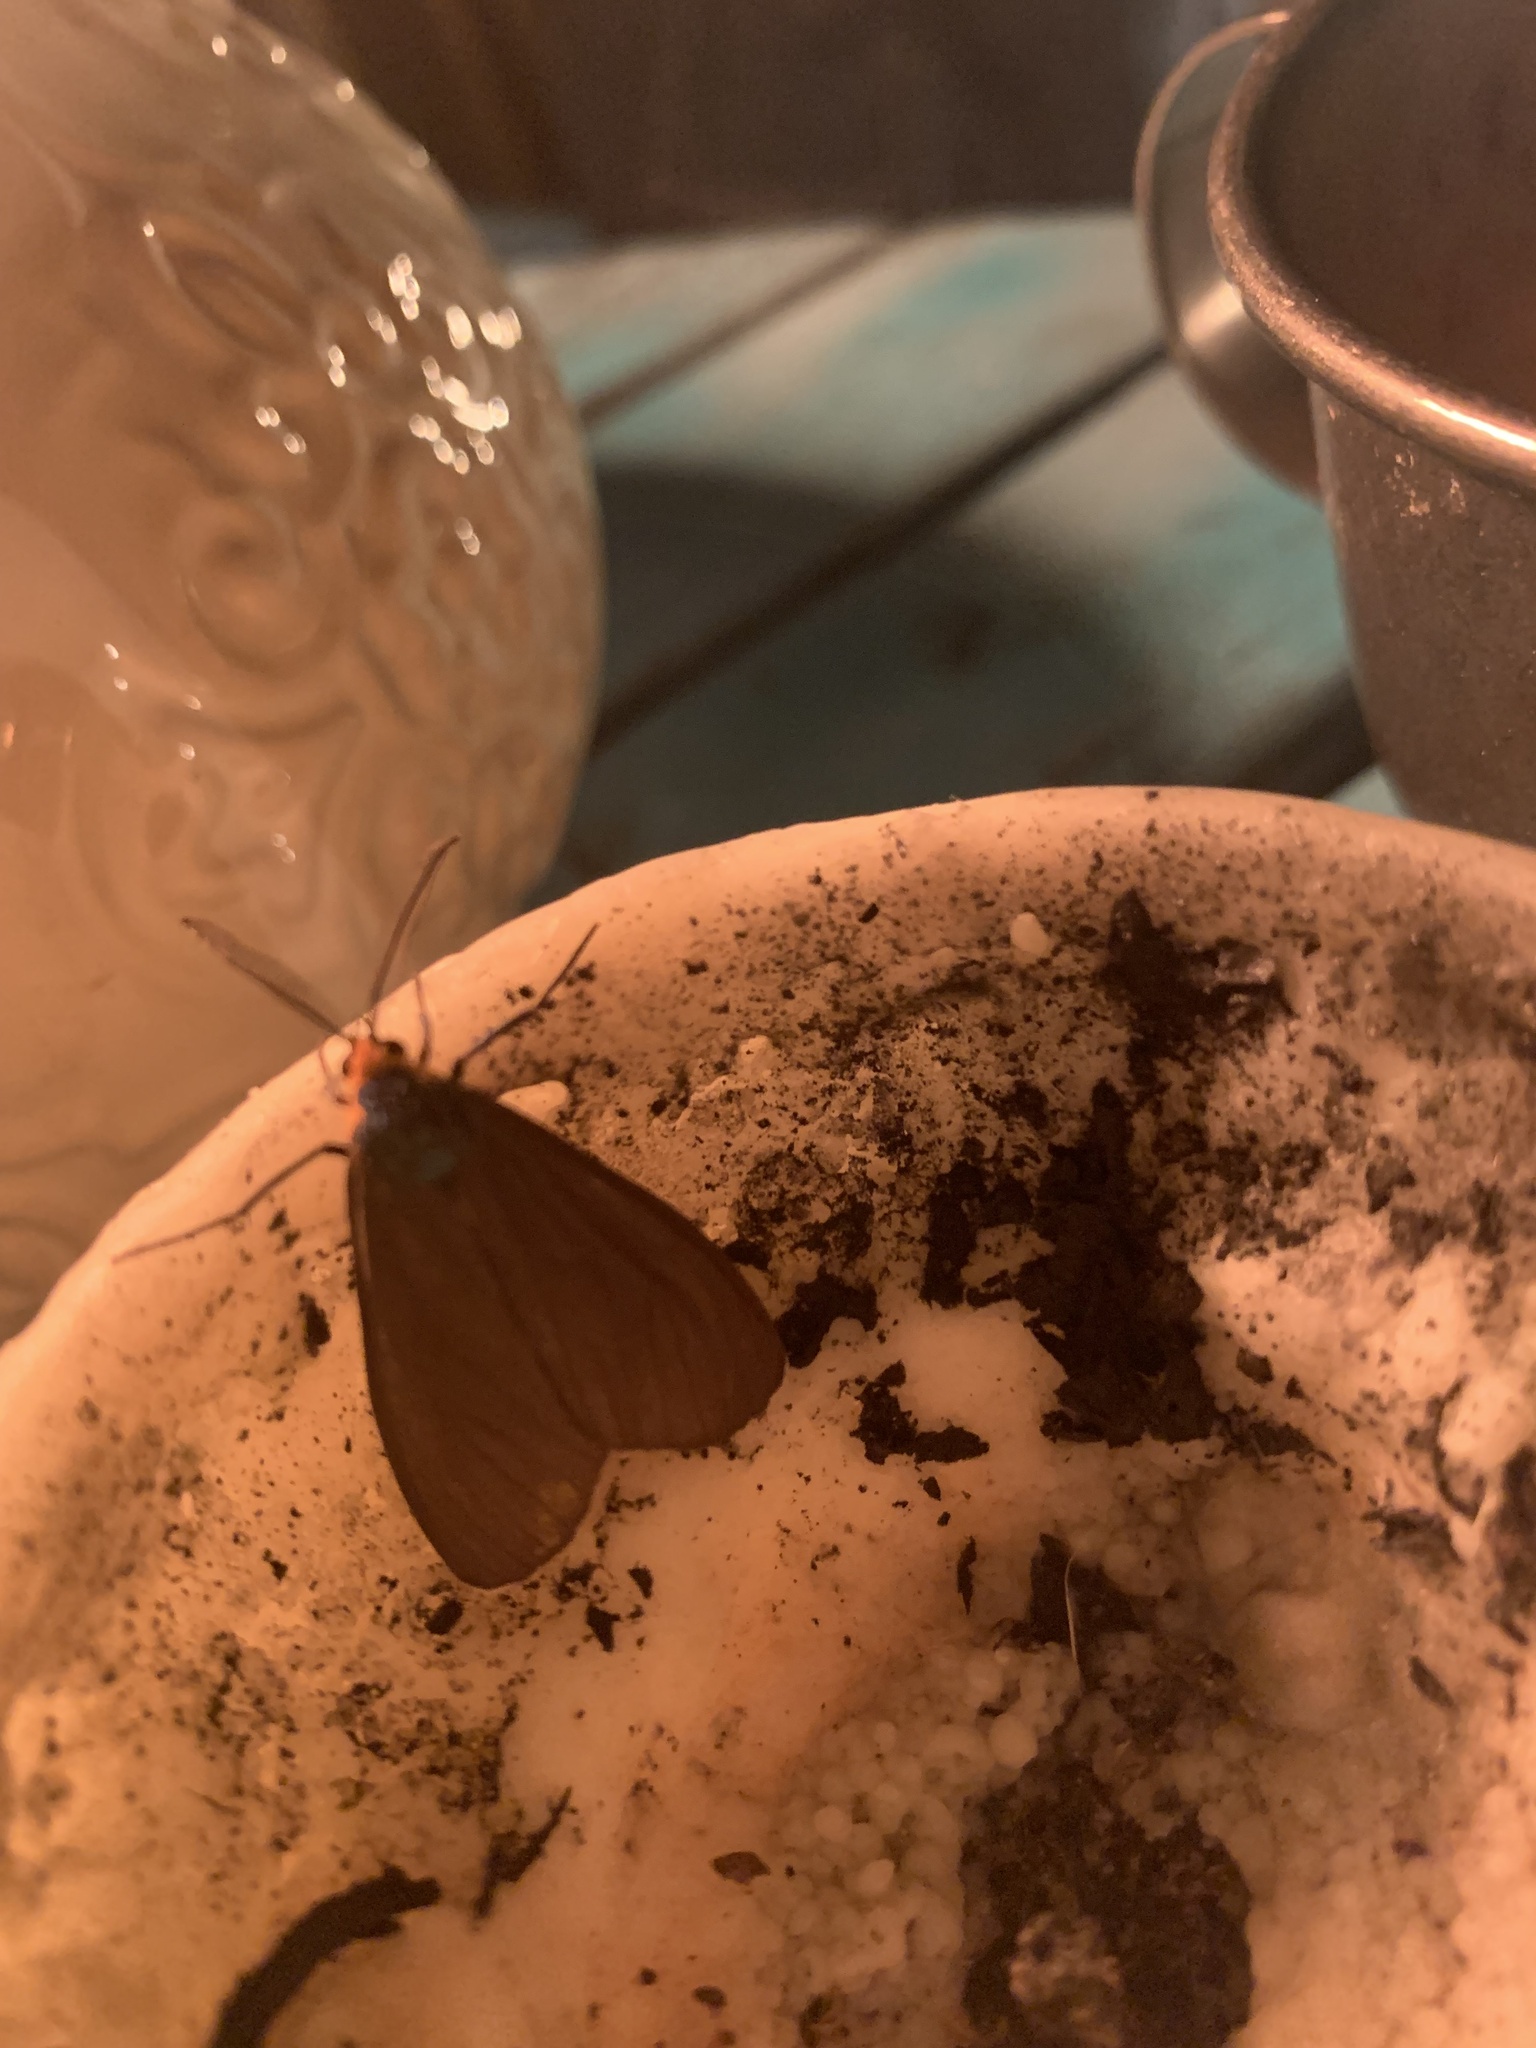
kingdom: Animalia
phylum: Arthropoda
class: Insecta
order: Lepidoptera
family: Erebidae
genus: Ctenucha
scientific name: Ctenucha virginica
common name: Virginia ctenucha moth
